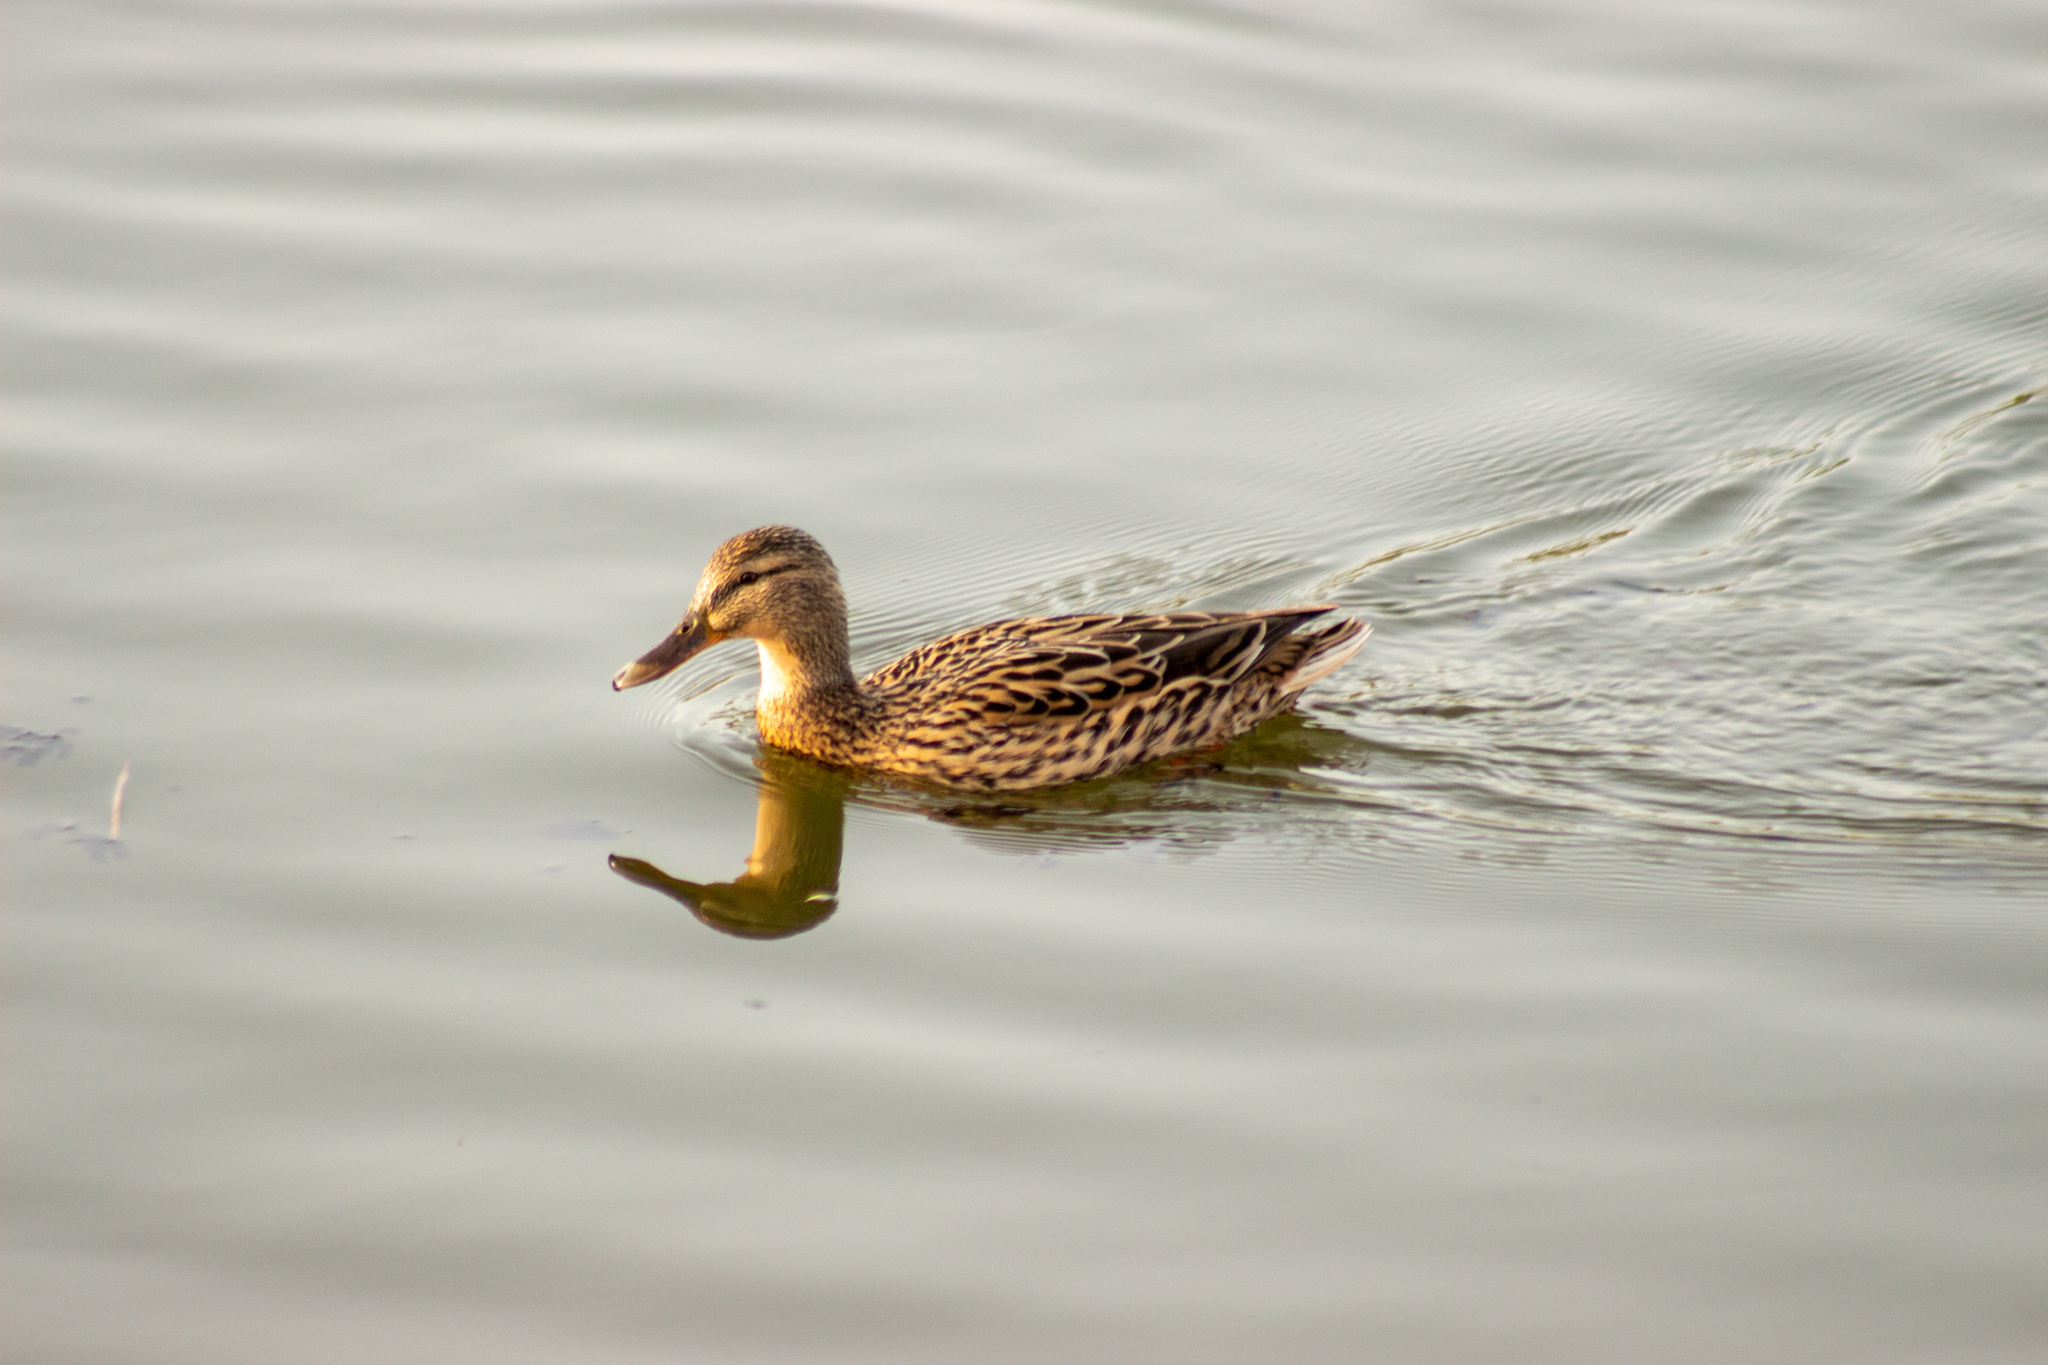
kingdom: Animalia
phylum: Chordata
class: Aves
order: Anseriformes
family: Anatidae
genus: Anas
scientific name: Anas platyrhynchos
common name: Mallard
